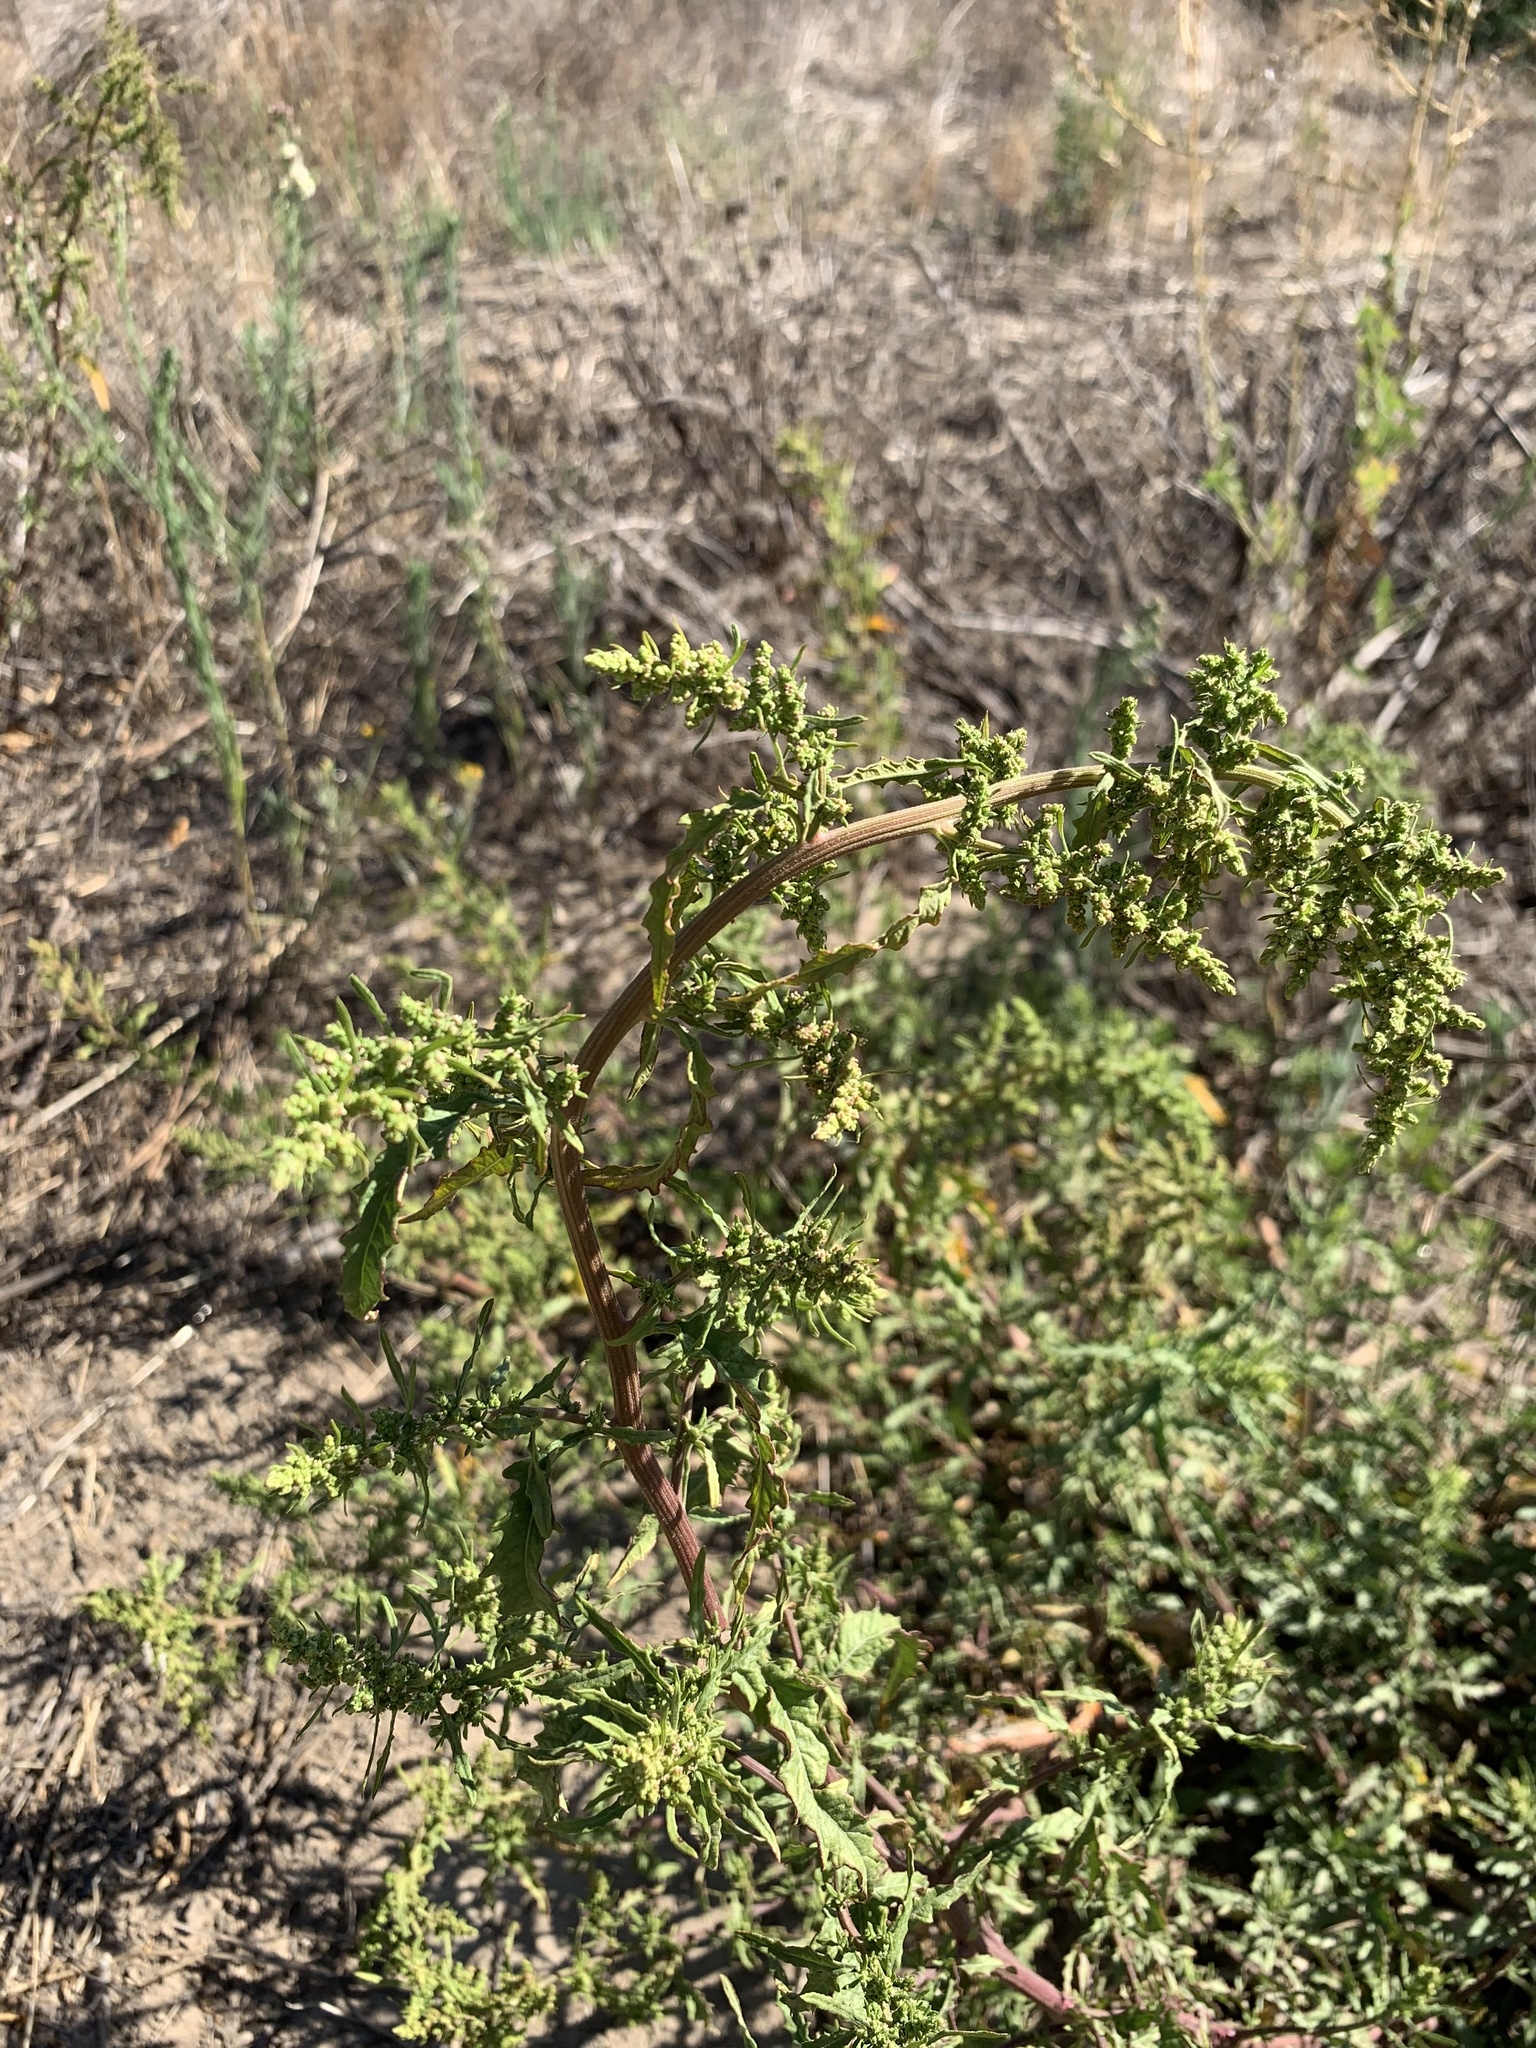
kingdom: Plantae
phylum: Tracheophyta
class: Magnoliopsida
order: Caryophyllales
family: Amaranthaceae
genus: Dysphania
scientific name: Dysphania ambrosioides
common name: Wormseed
